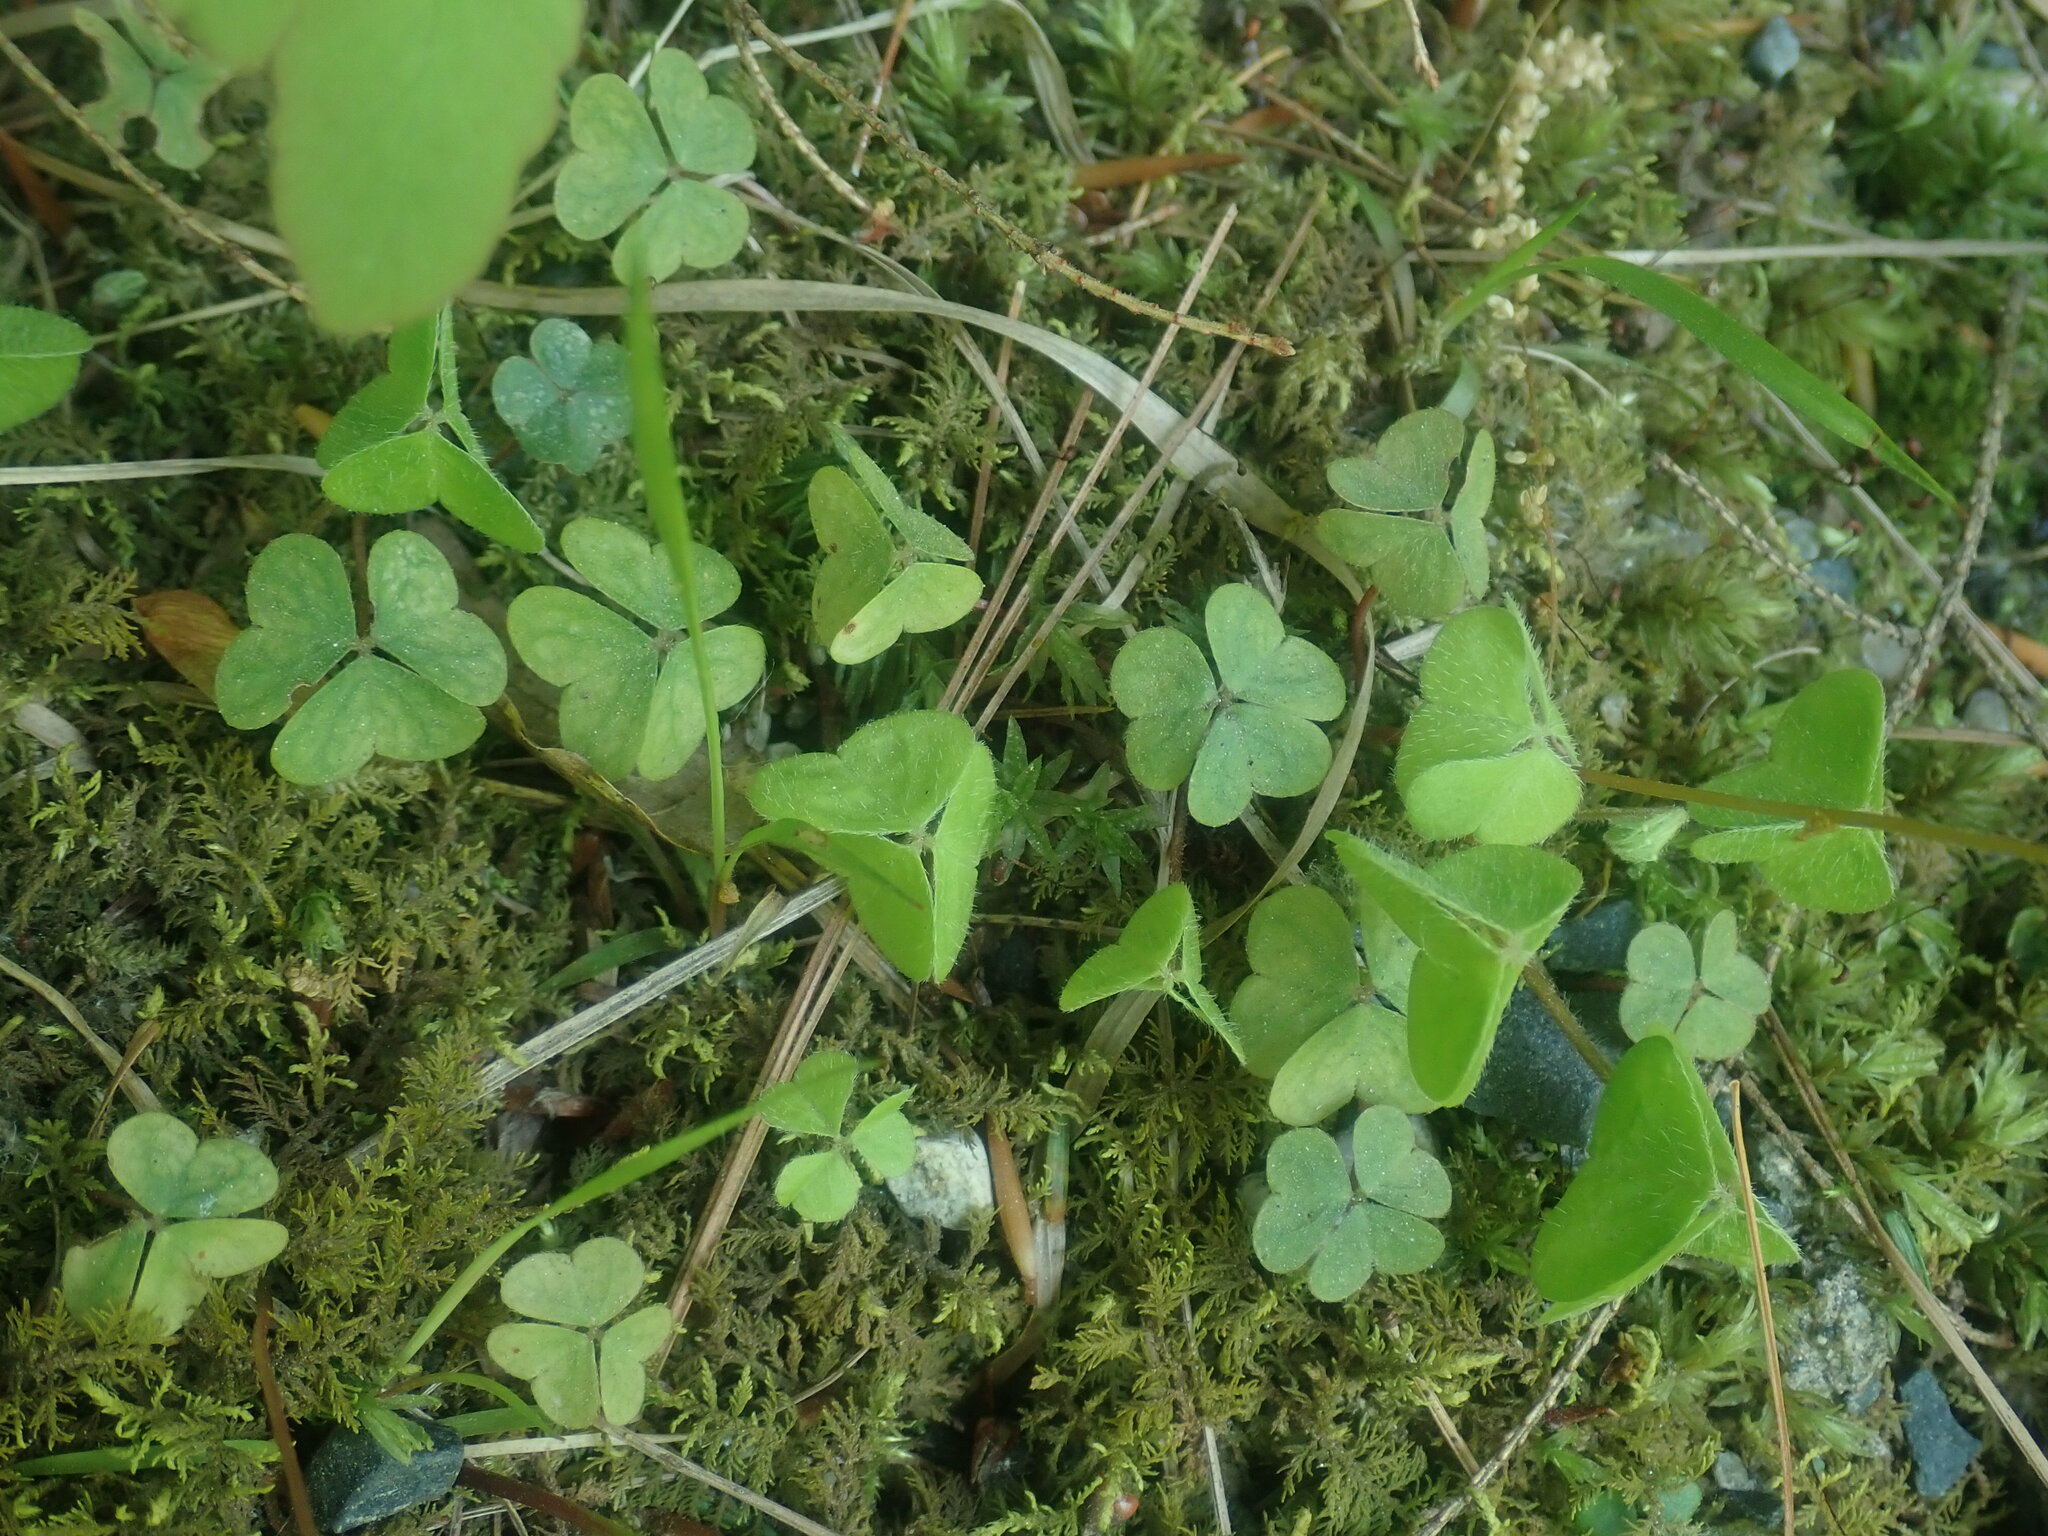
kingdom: Plantae
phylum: Tracheophyta
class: Magnoliopsida
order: Oxalidales
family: Oxalidaceae
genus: Oxalis
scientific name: Oxalis montana
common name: American wood-sorrel
